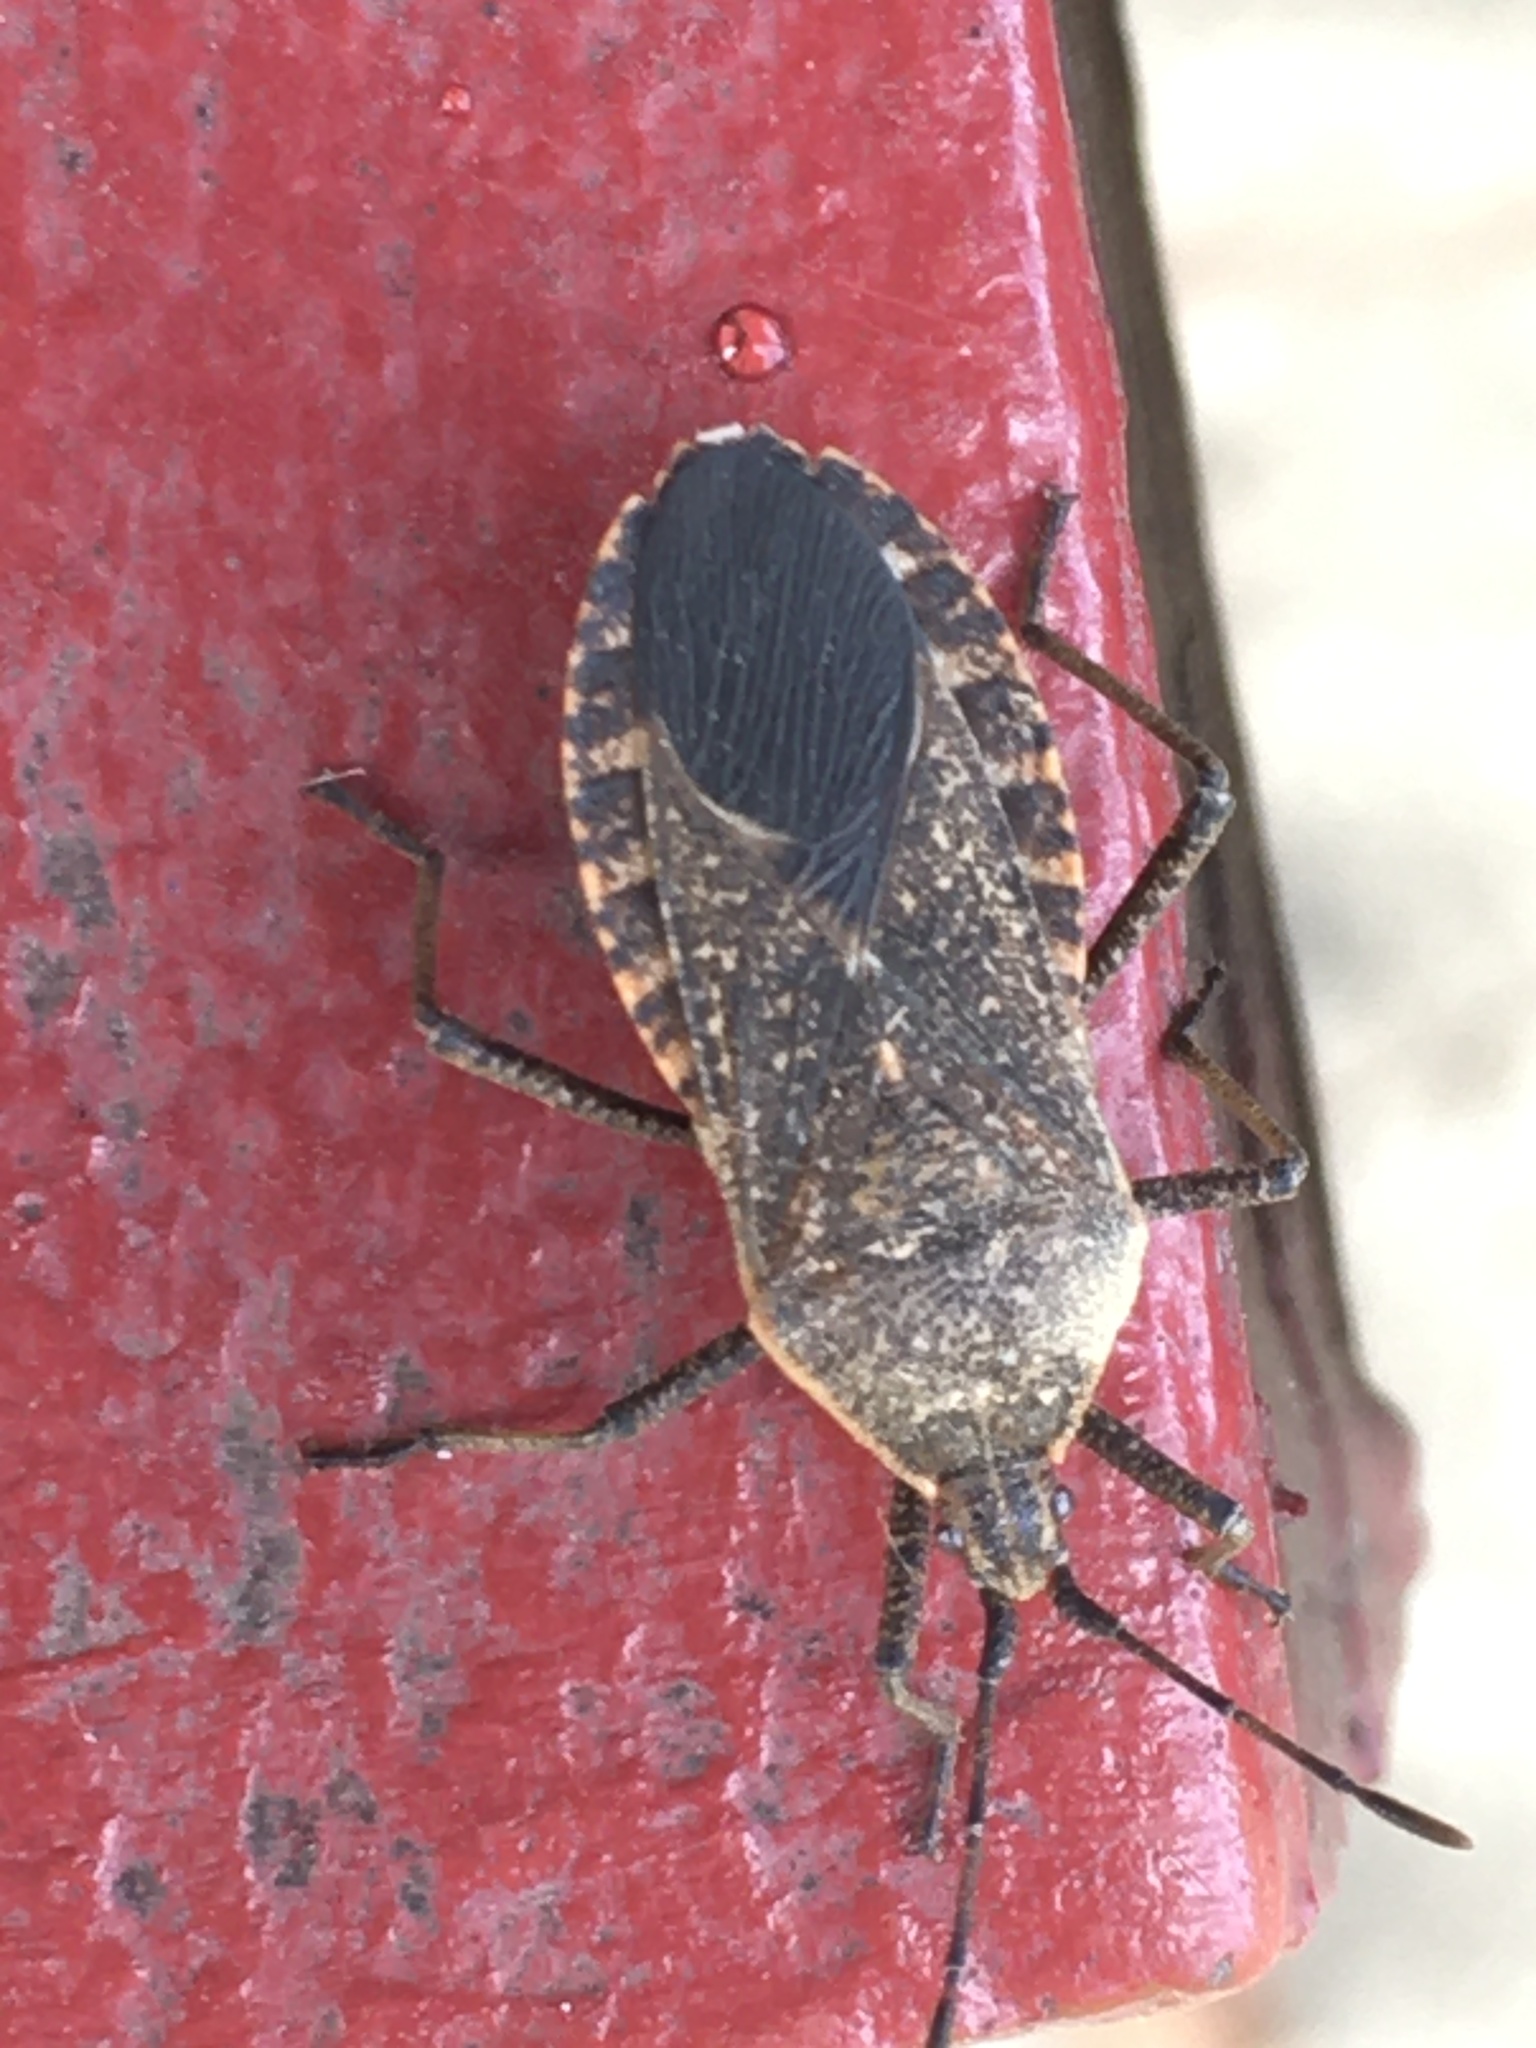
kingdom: Animalia
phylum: Arthropoda
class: Insecta
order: Hemiptera
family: Coreidae
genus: Anasa
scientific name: Anasa tristis
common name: Squash bug
